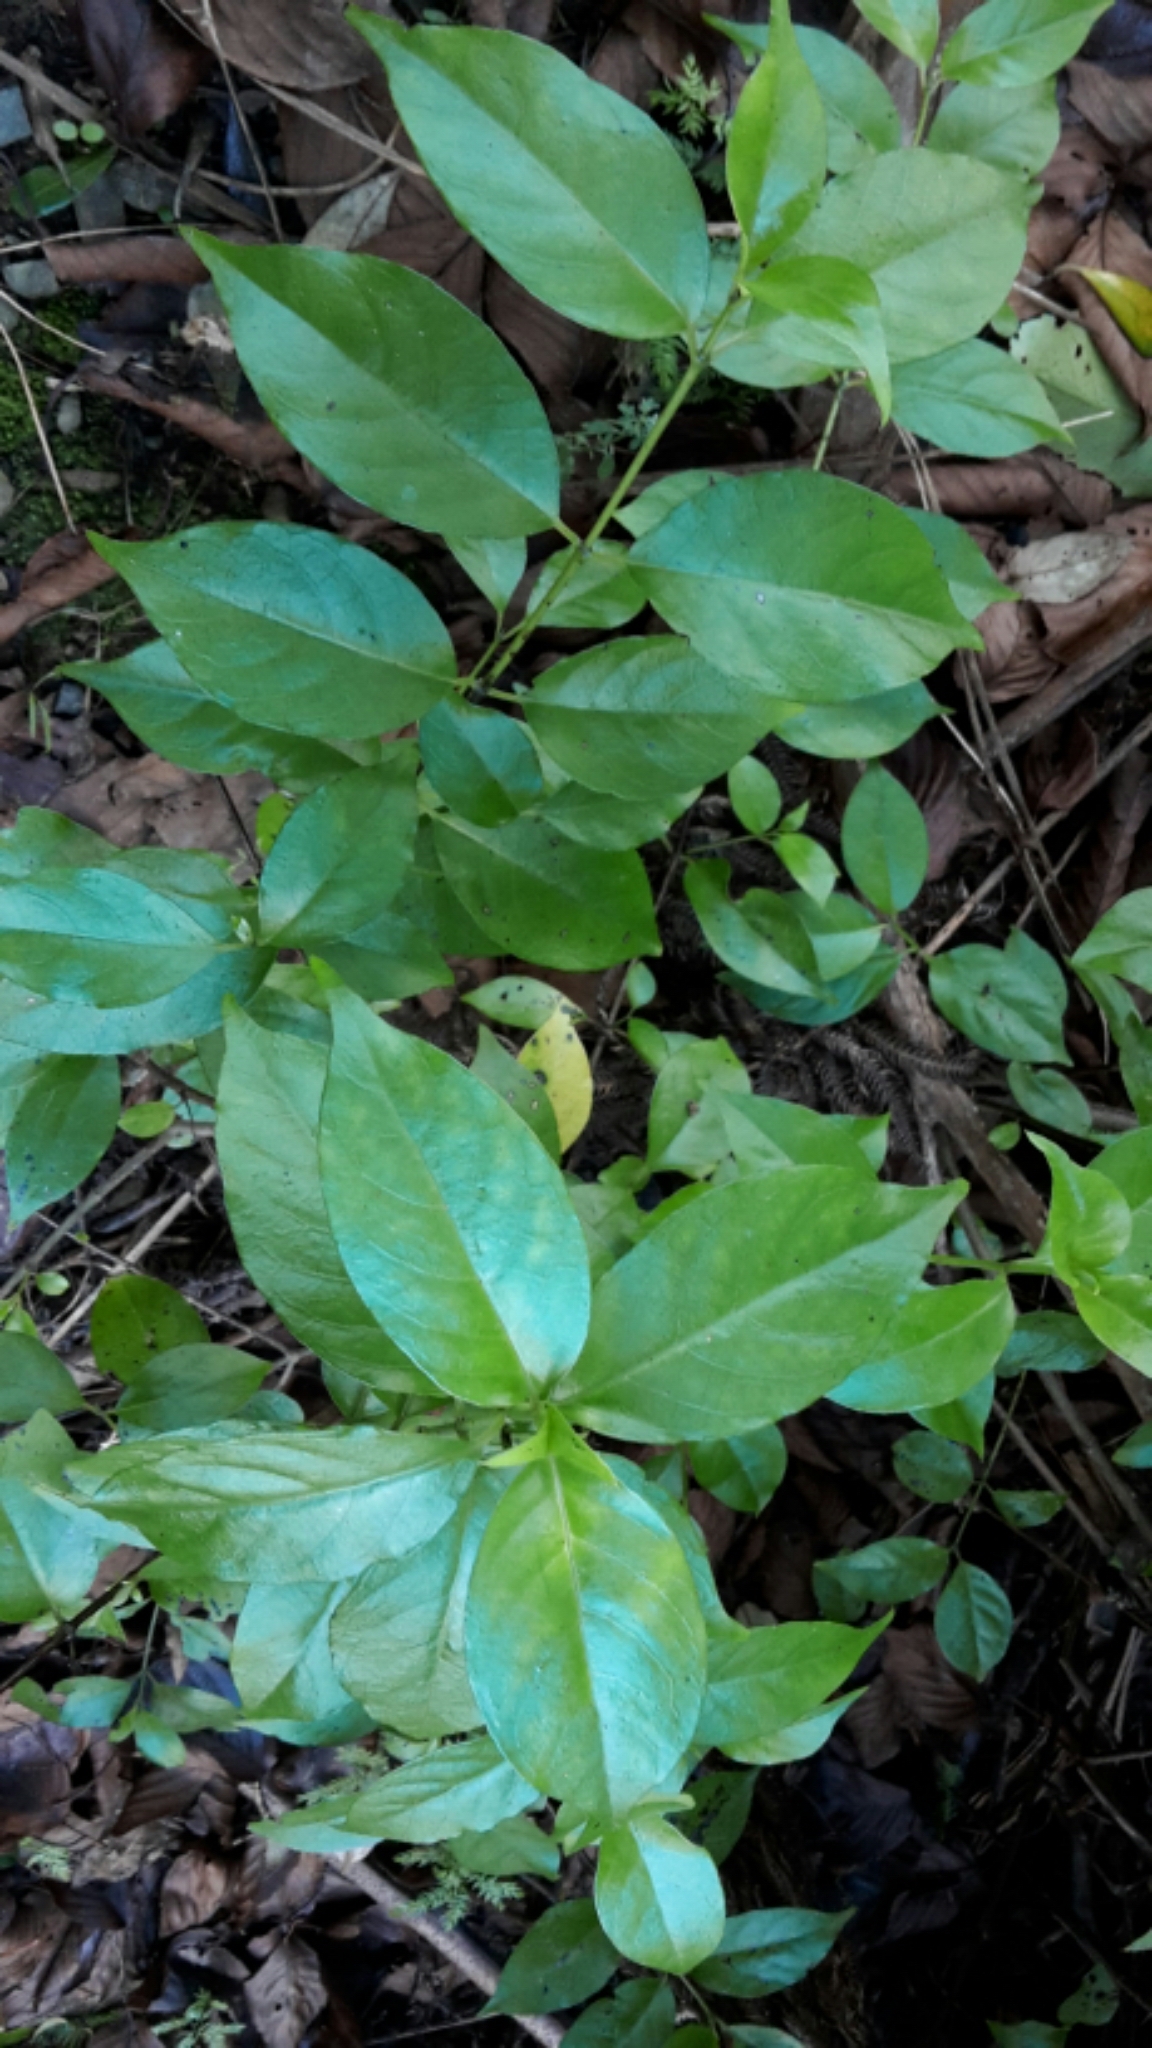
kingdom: Plantae
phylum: Tracheophyta
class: Magnoliopsida
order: Gentianales
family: Loganiaceae
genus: Geniostoma
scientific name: Geniostoma ligustrifolium
